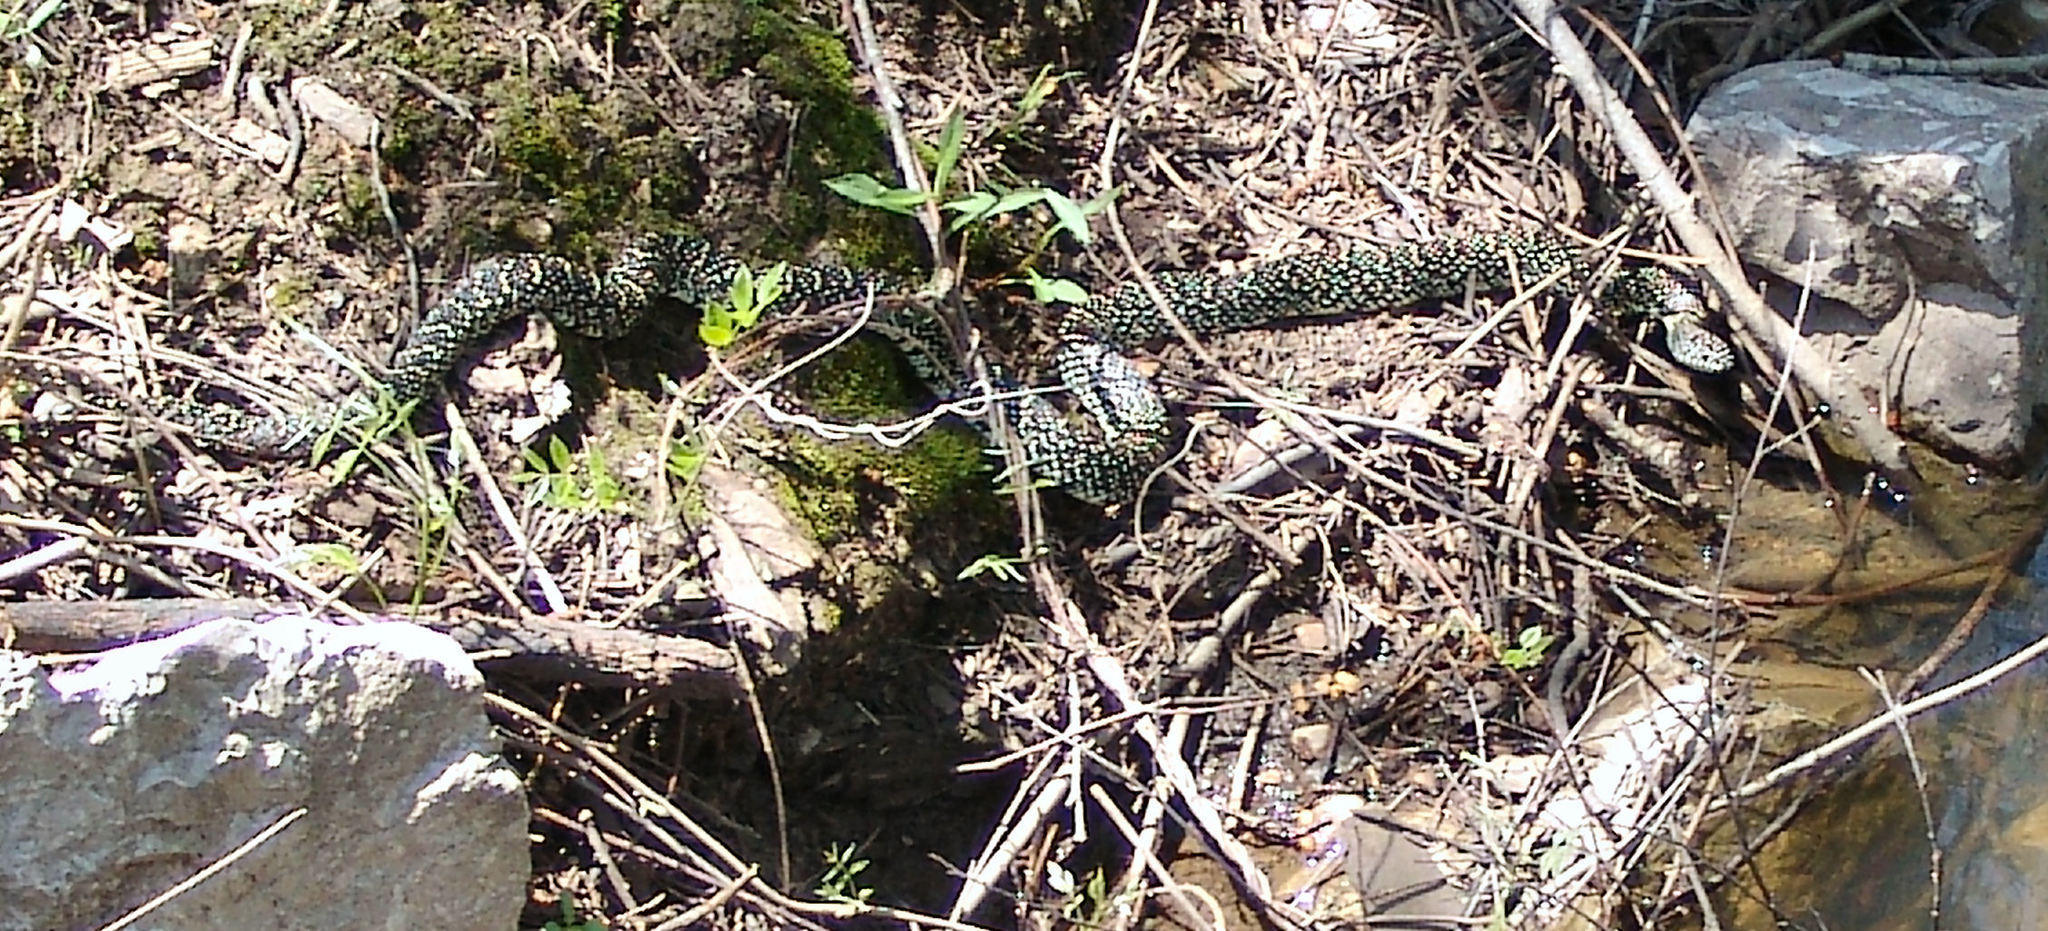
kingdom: Animalia
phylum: Chordata
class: Squamata
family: Colubridae
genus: Lampropeltis
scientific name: Lampropeltis holbrooki
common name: Speckled kingsnake
